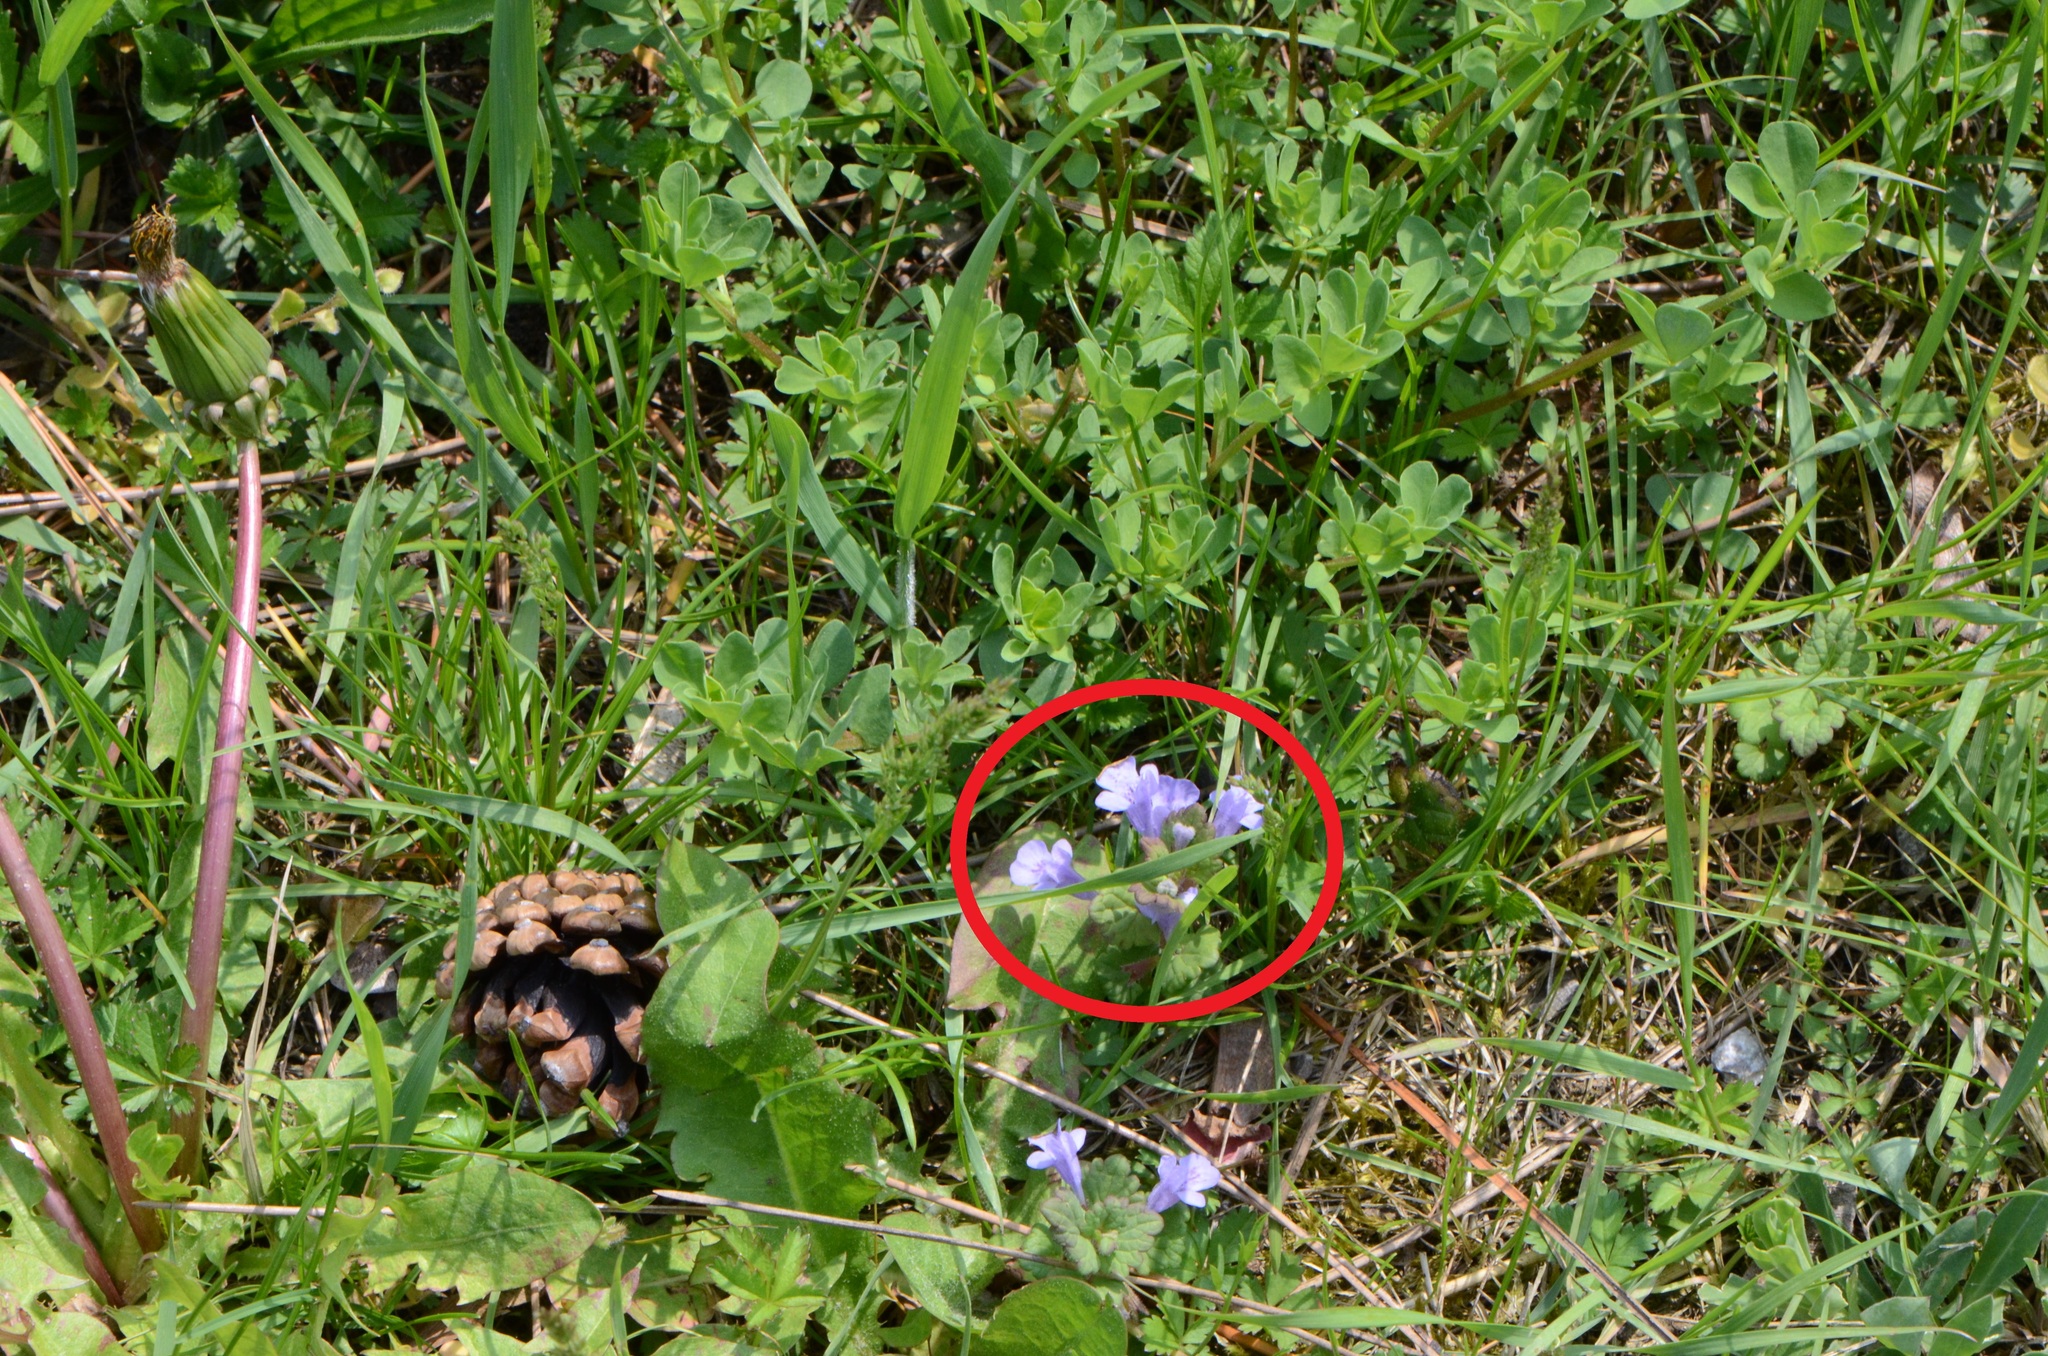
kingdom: Plantae
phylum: Tracheophyta
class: Magnoliopsida
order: Lamiales
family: Lamiaceae
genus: Glechoma
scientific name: Glechoma hederacea
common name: Ground ivy
